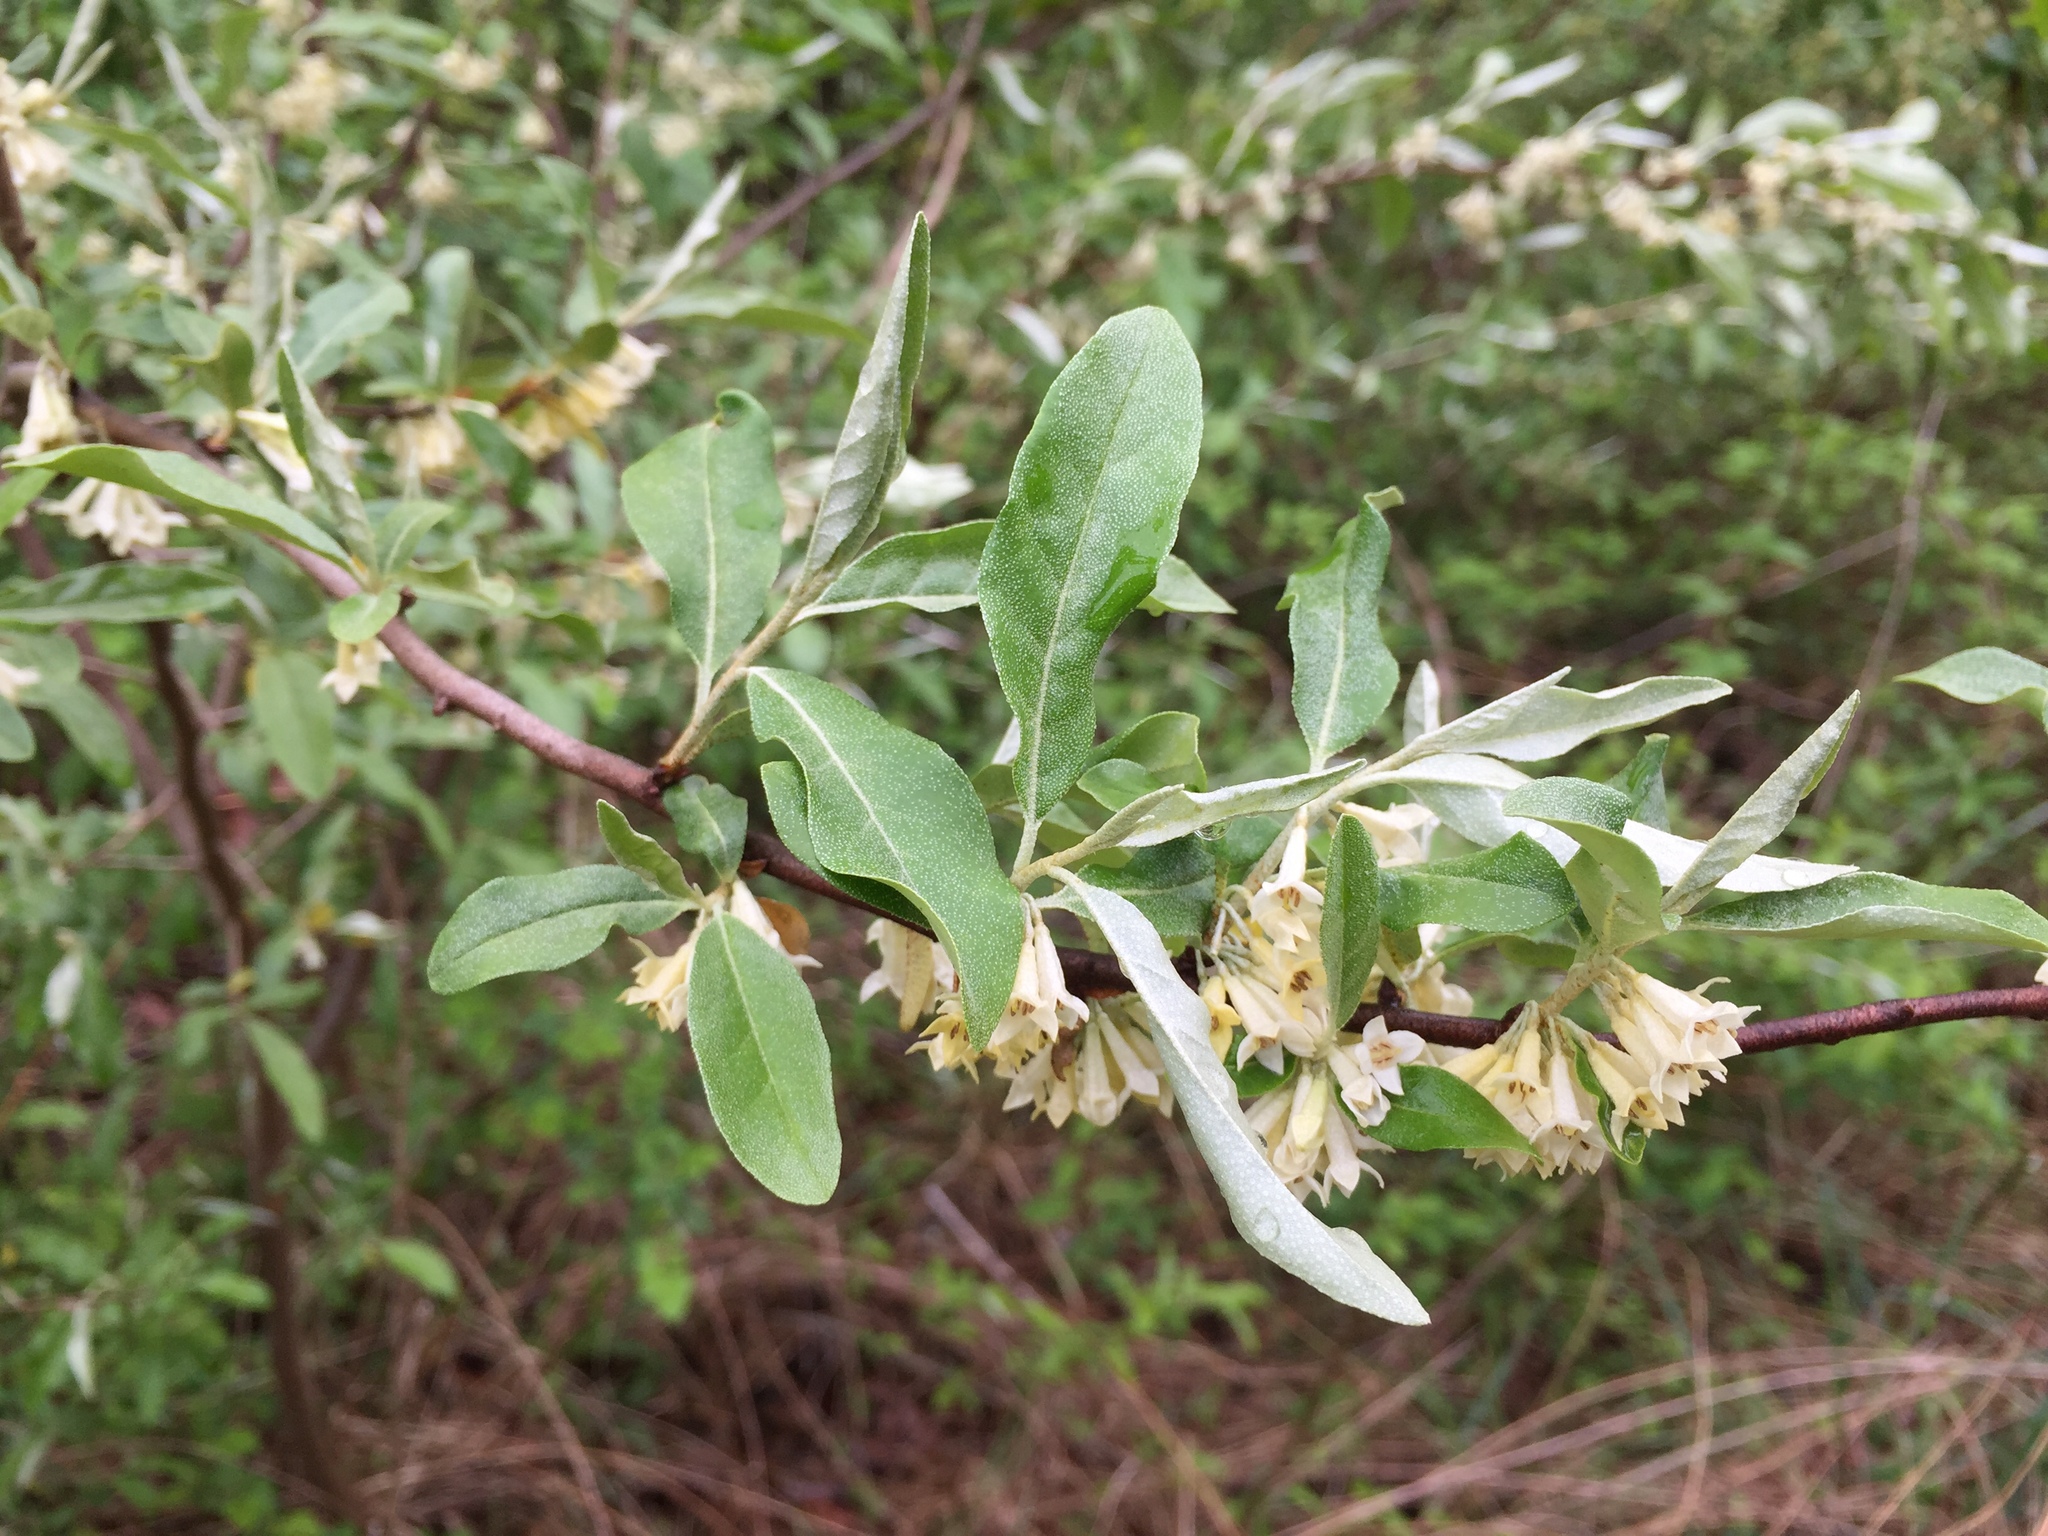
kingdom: Plantae
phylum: Tracheophyta
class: Magnoliopsida
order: Rosales
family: Elaeagnaceae
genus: Elaeagnus
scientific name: Elaeagnus umbellata
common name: Autumn olive
